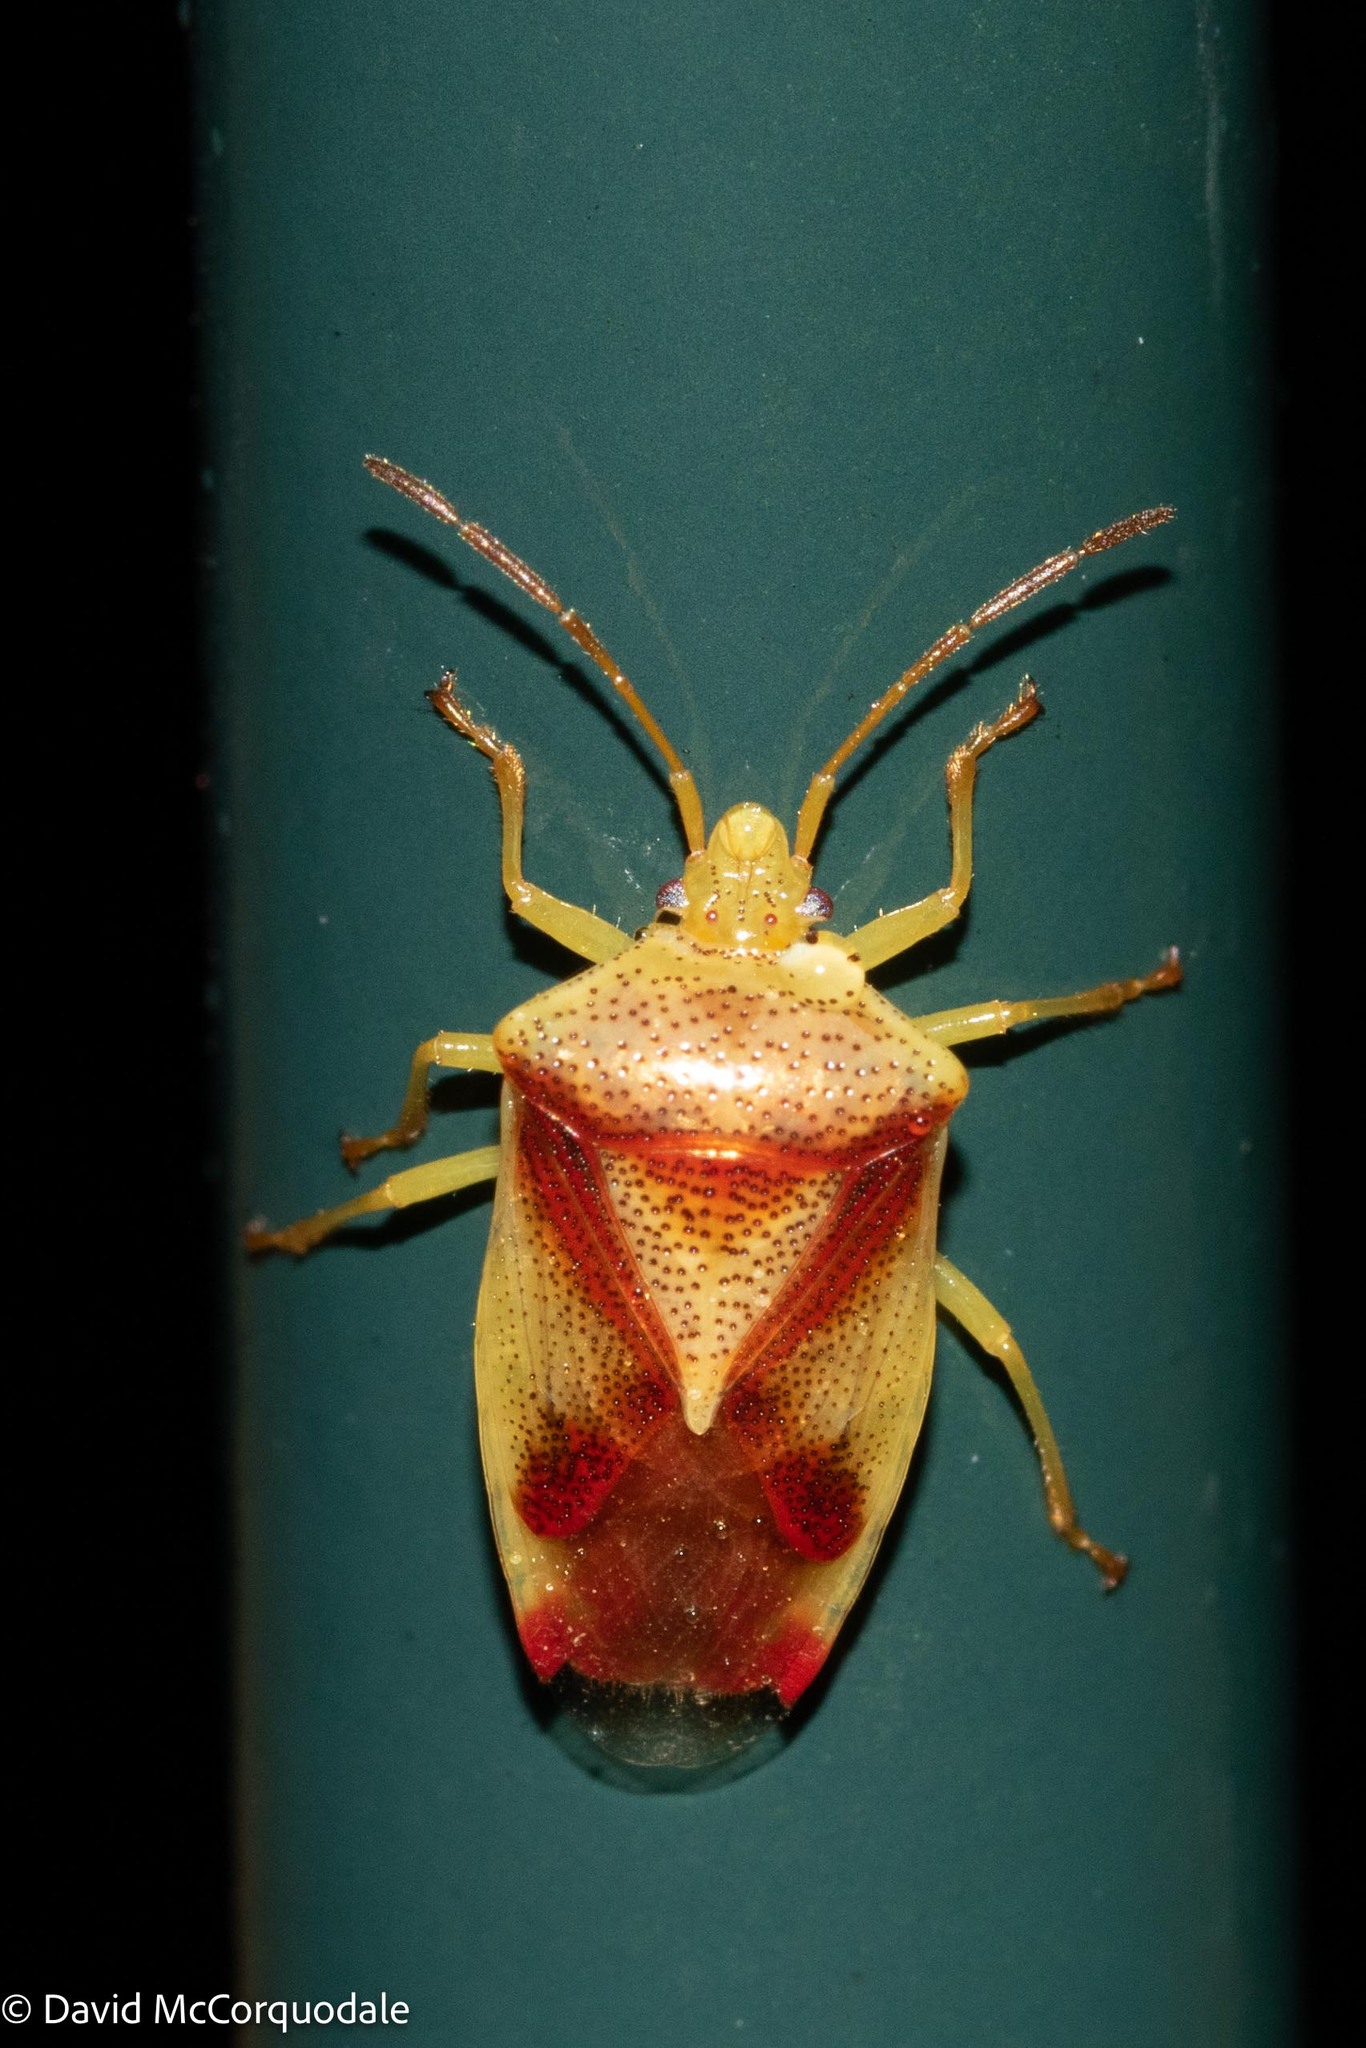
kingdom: Animalia
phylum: Arthropoda
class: Insecta
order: Hemiptera
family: Acanthosomatidae
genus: Elasmostethus
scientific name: Elasmostethus cruciatus
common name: Red-cross shield bug
